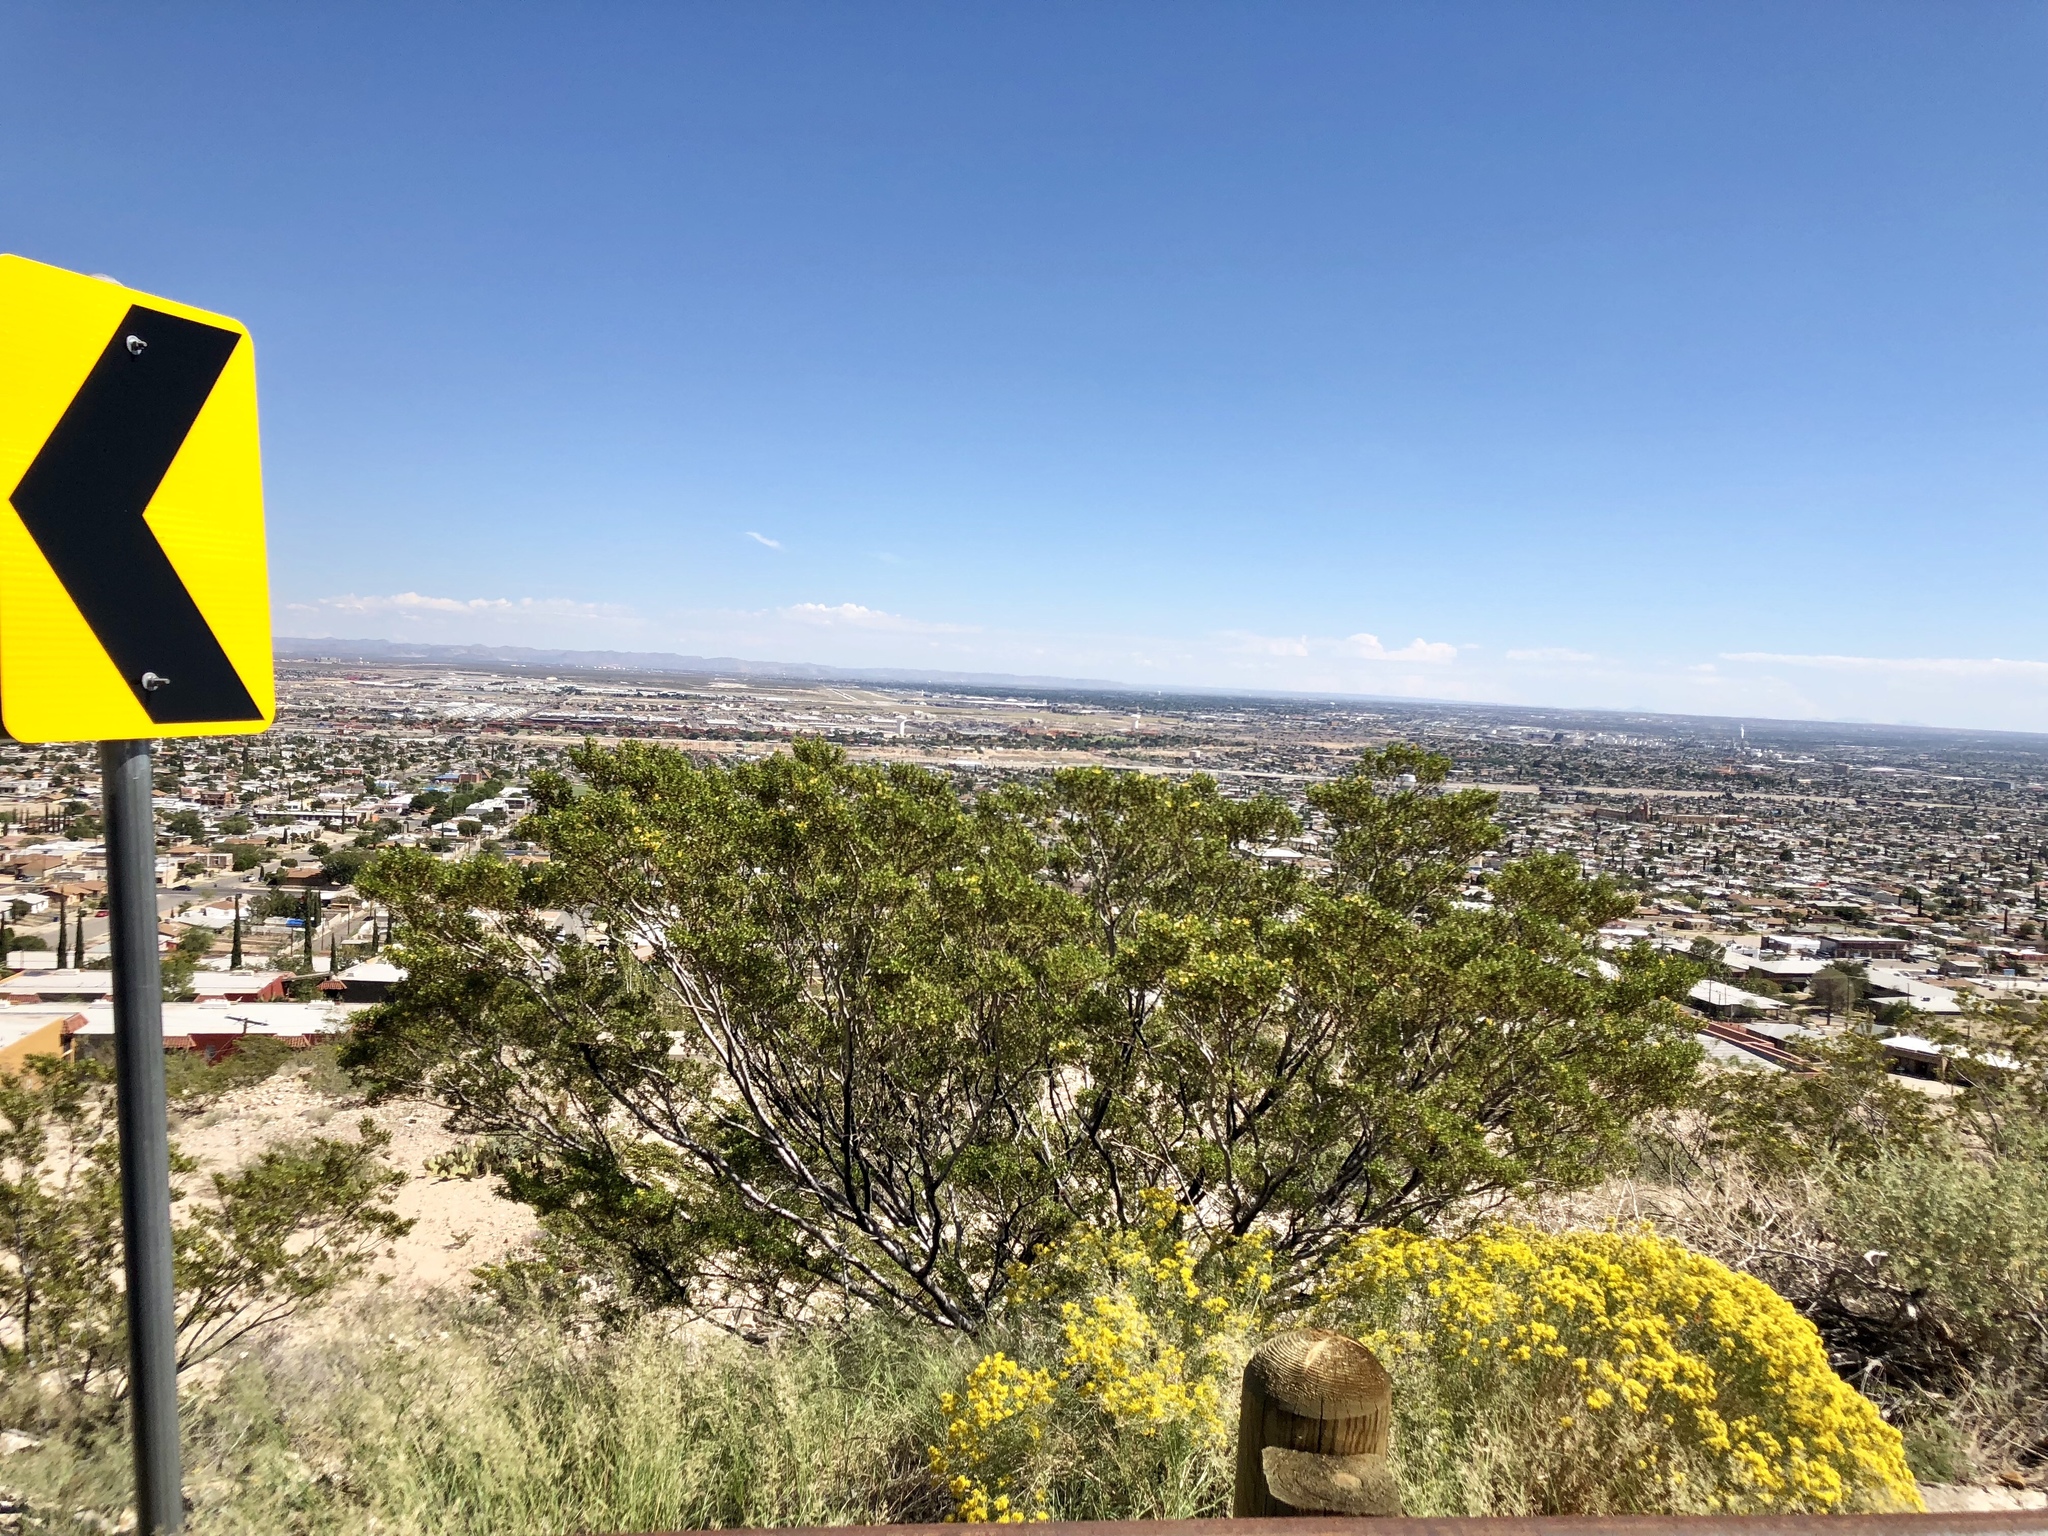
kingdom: Plantae
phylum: Tracheophyta
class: Magnoliopsida
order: Zygophyllales
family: Zygophyllaceae
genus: Larrea
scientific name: Larrea tridentata
